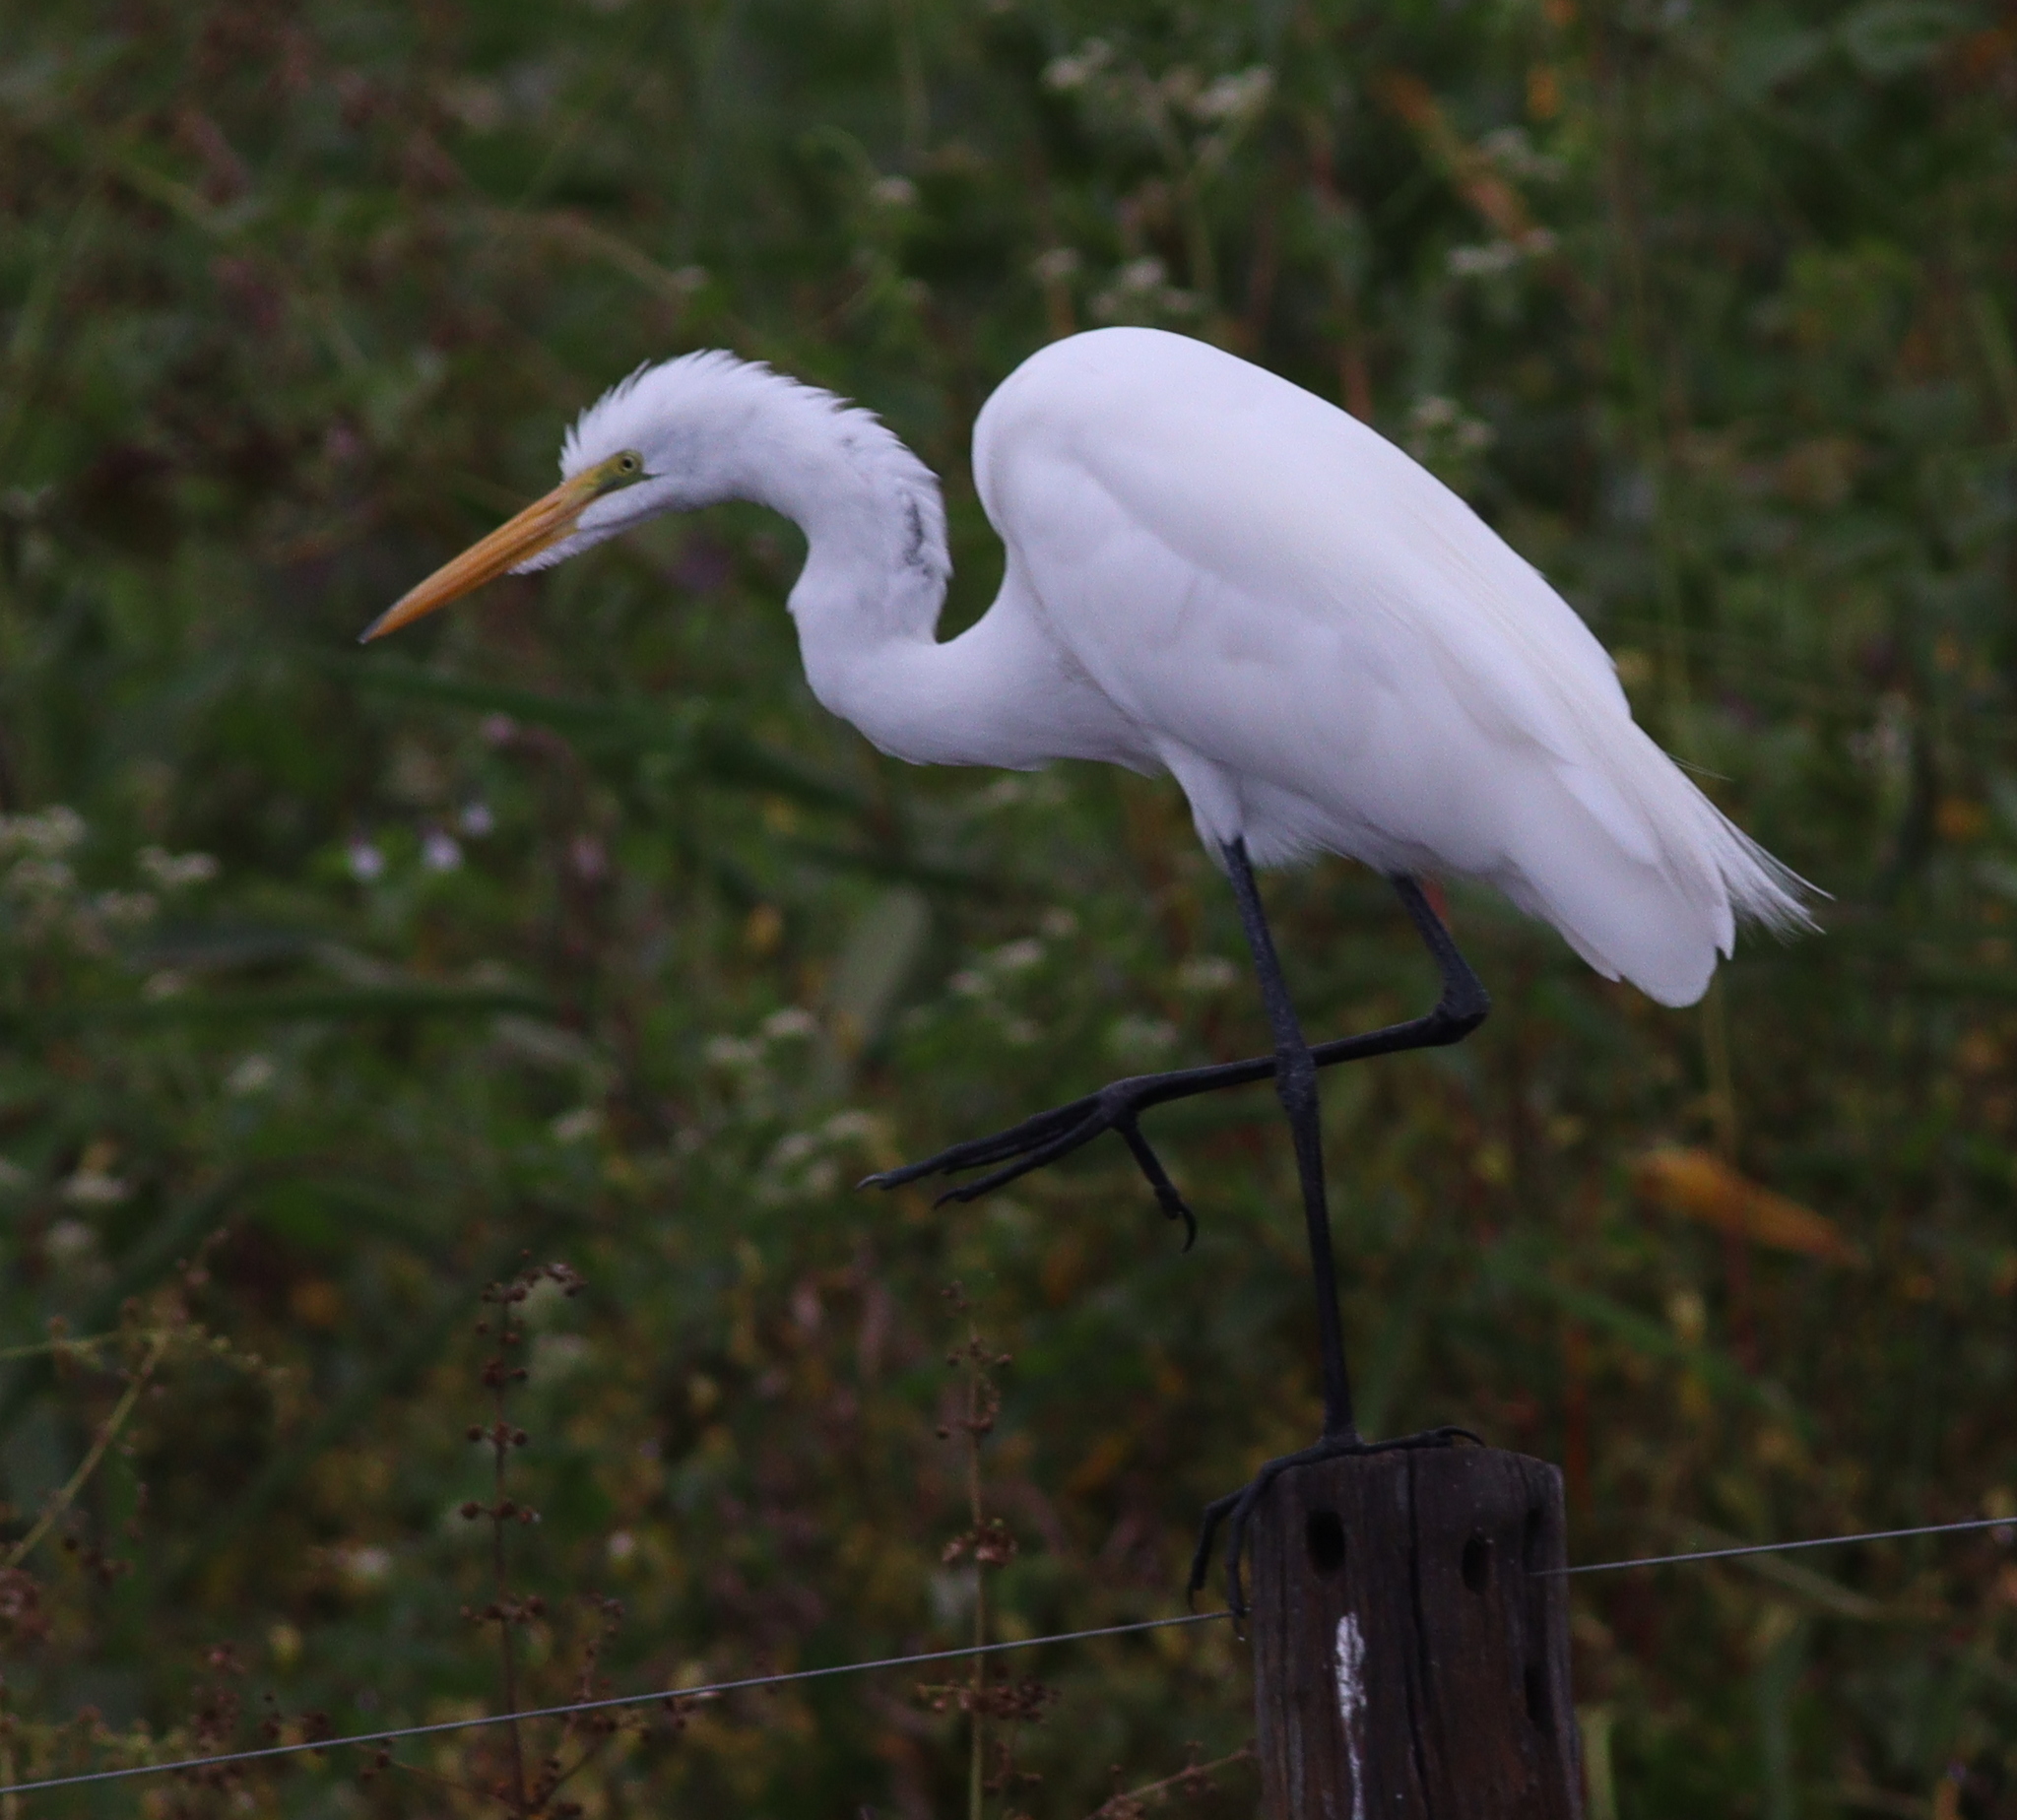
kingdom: Animalia
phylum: Chordata
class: Aves
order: Pelecaniformes
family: Ardeidae
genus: Ardea
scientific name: Ardea alba
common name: Great egret
